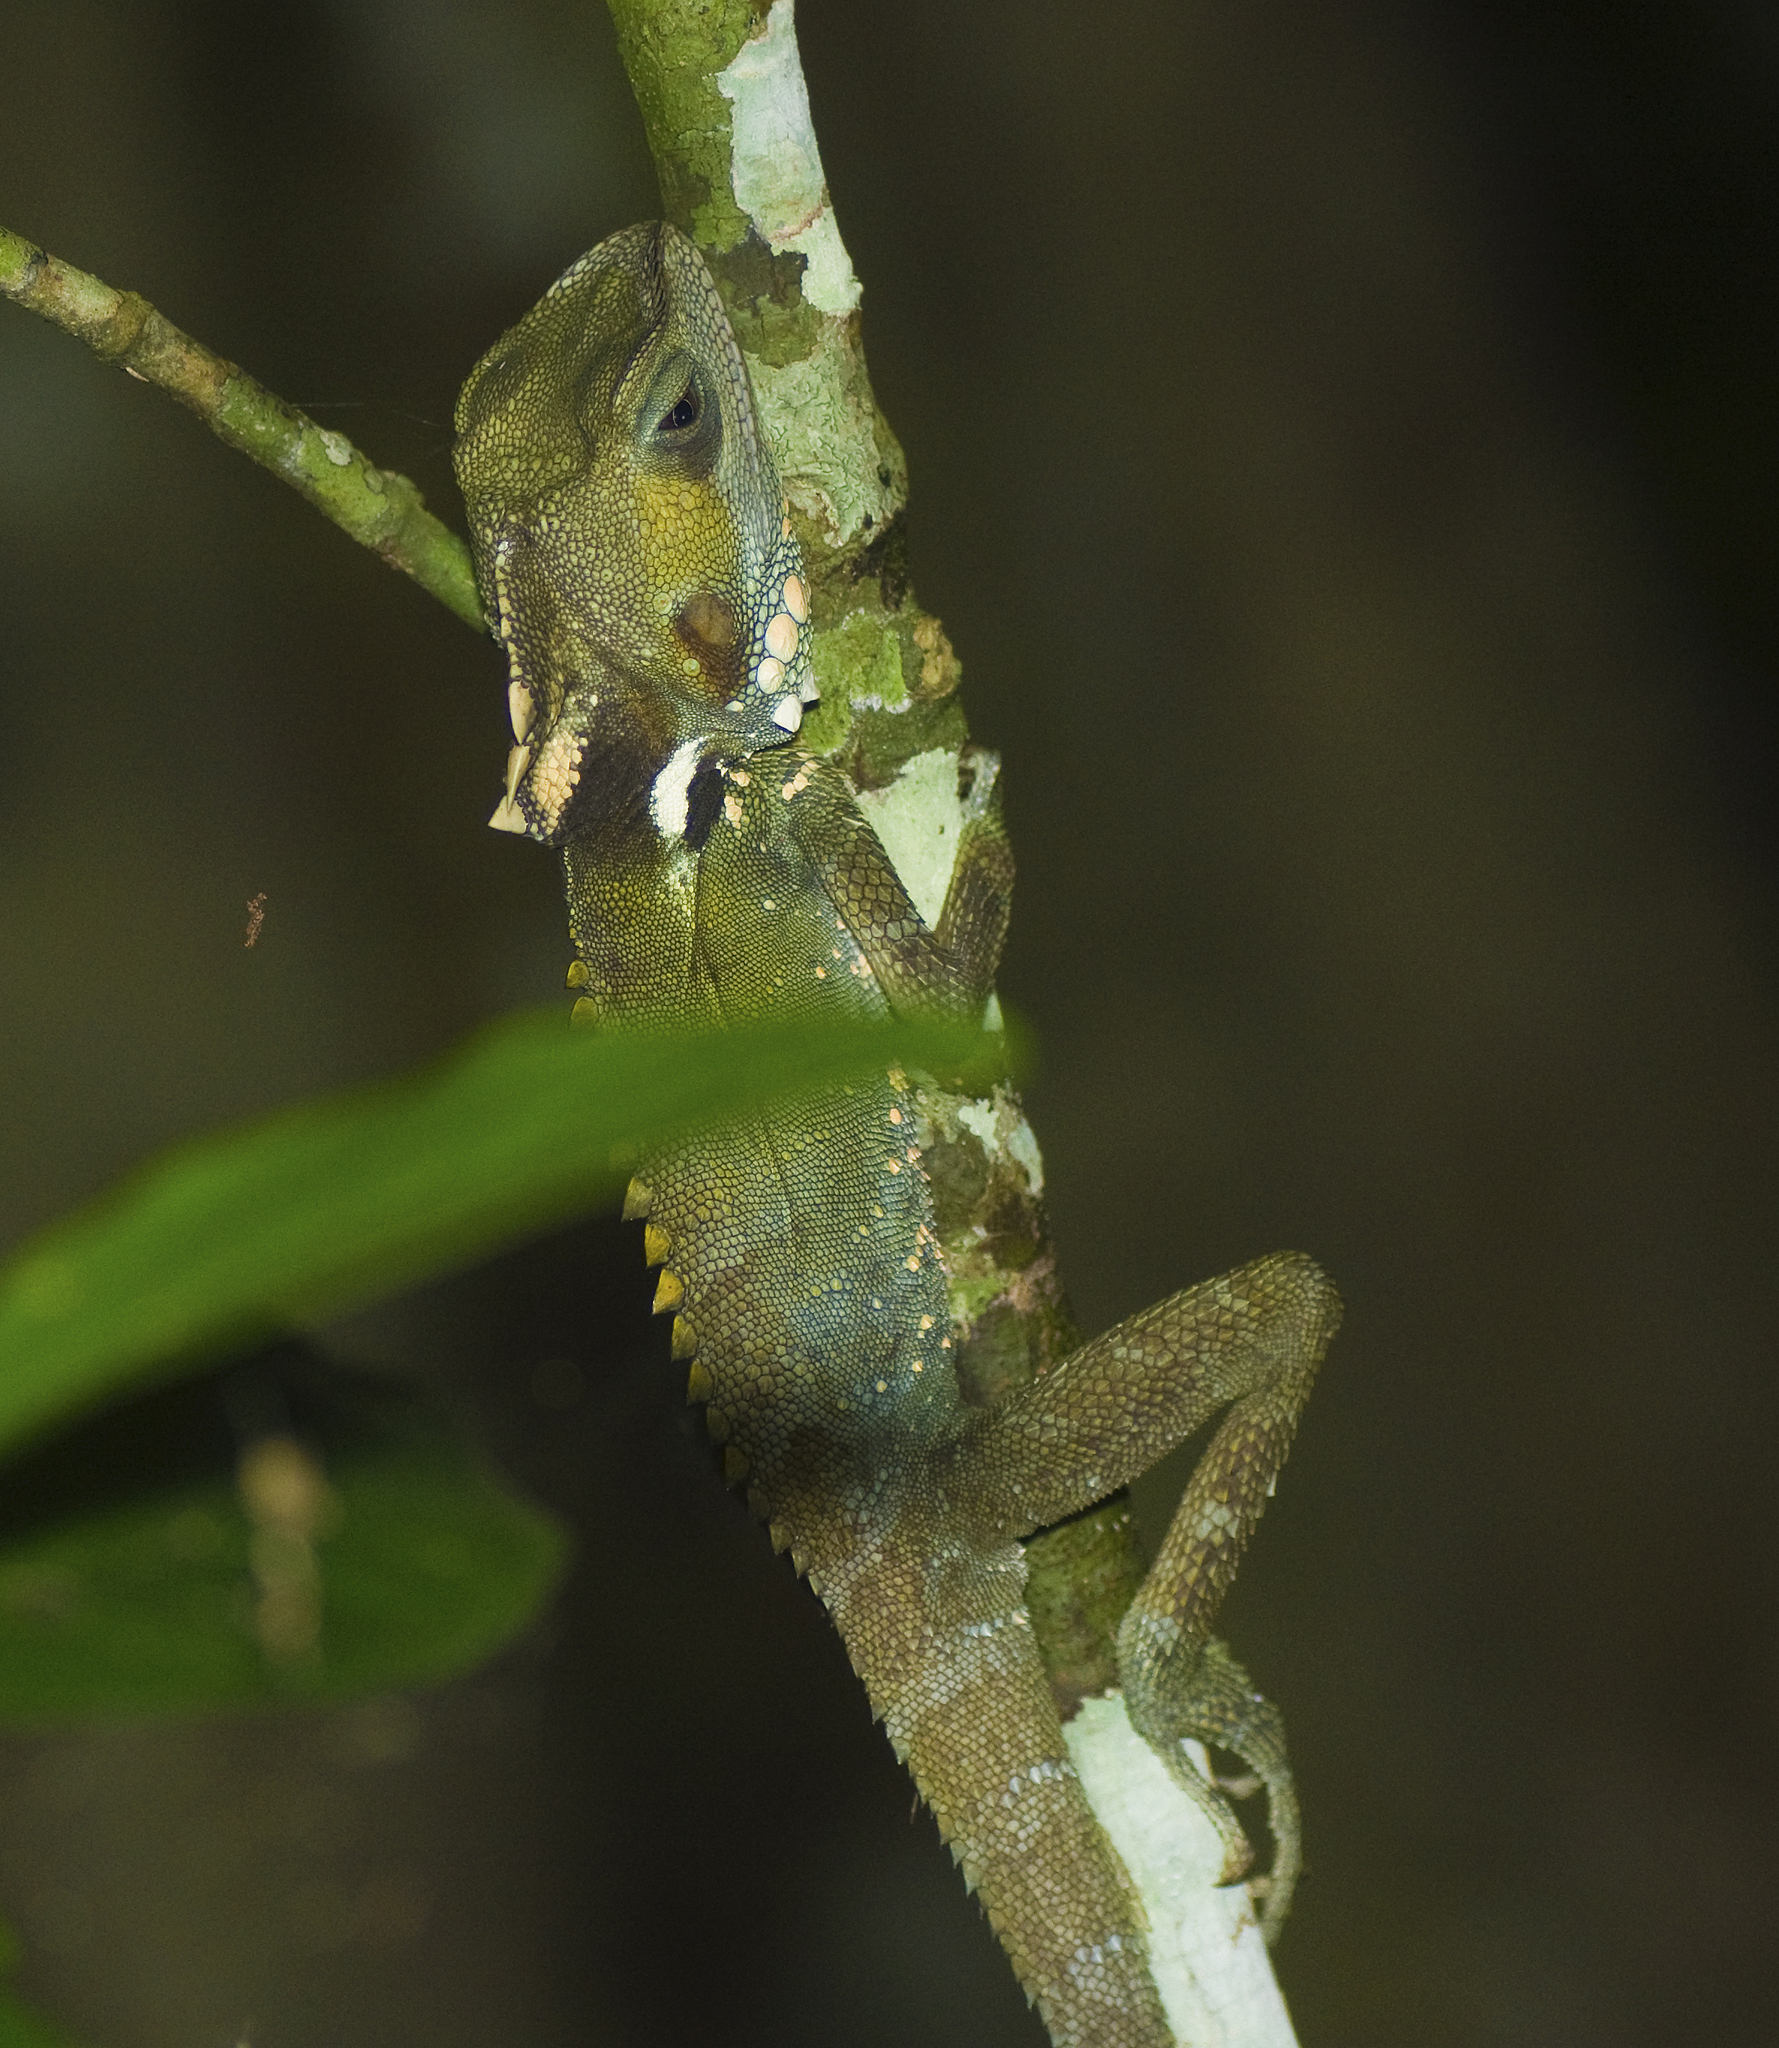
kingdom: Animalia
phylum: Chordata
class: Squamata
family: Agamidae
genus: Lophosaurus
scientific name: Lophosaurus boydii
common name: Boyd's forest dragon
